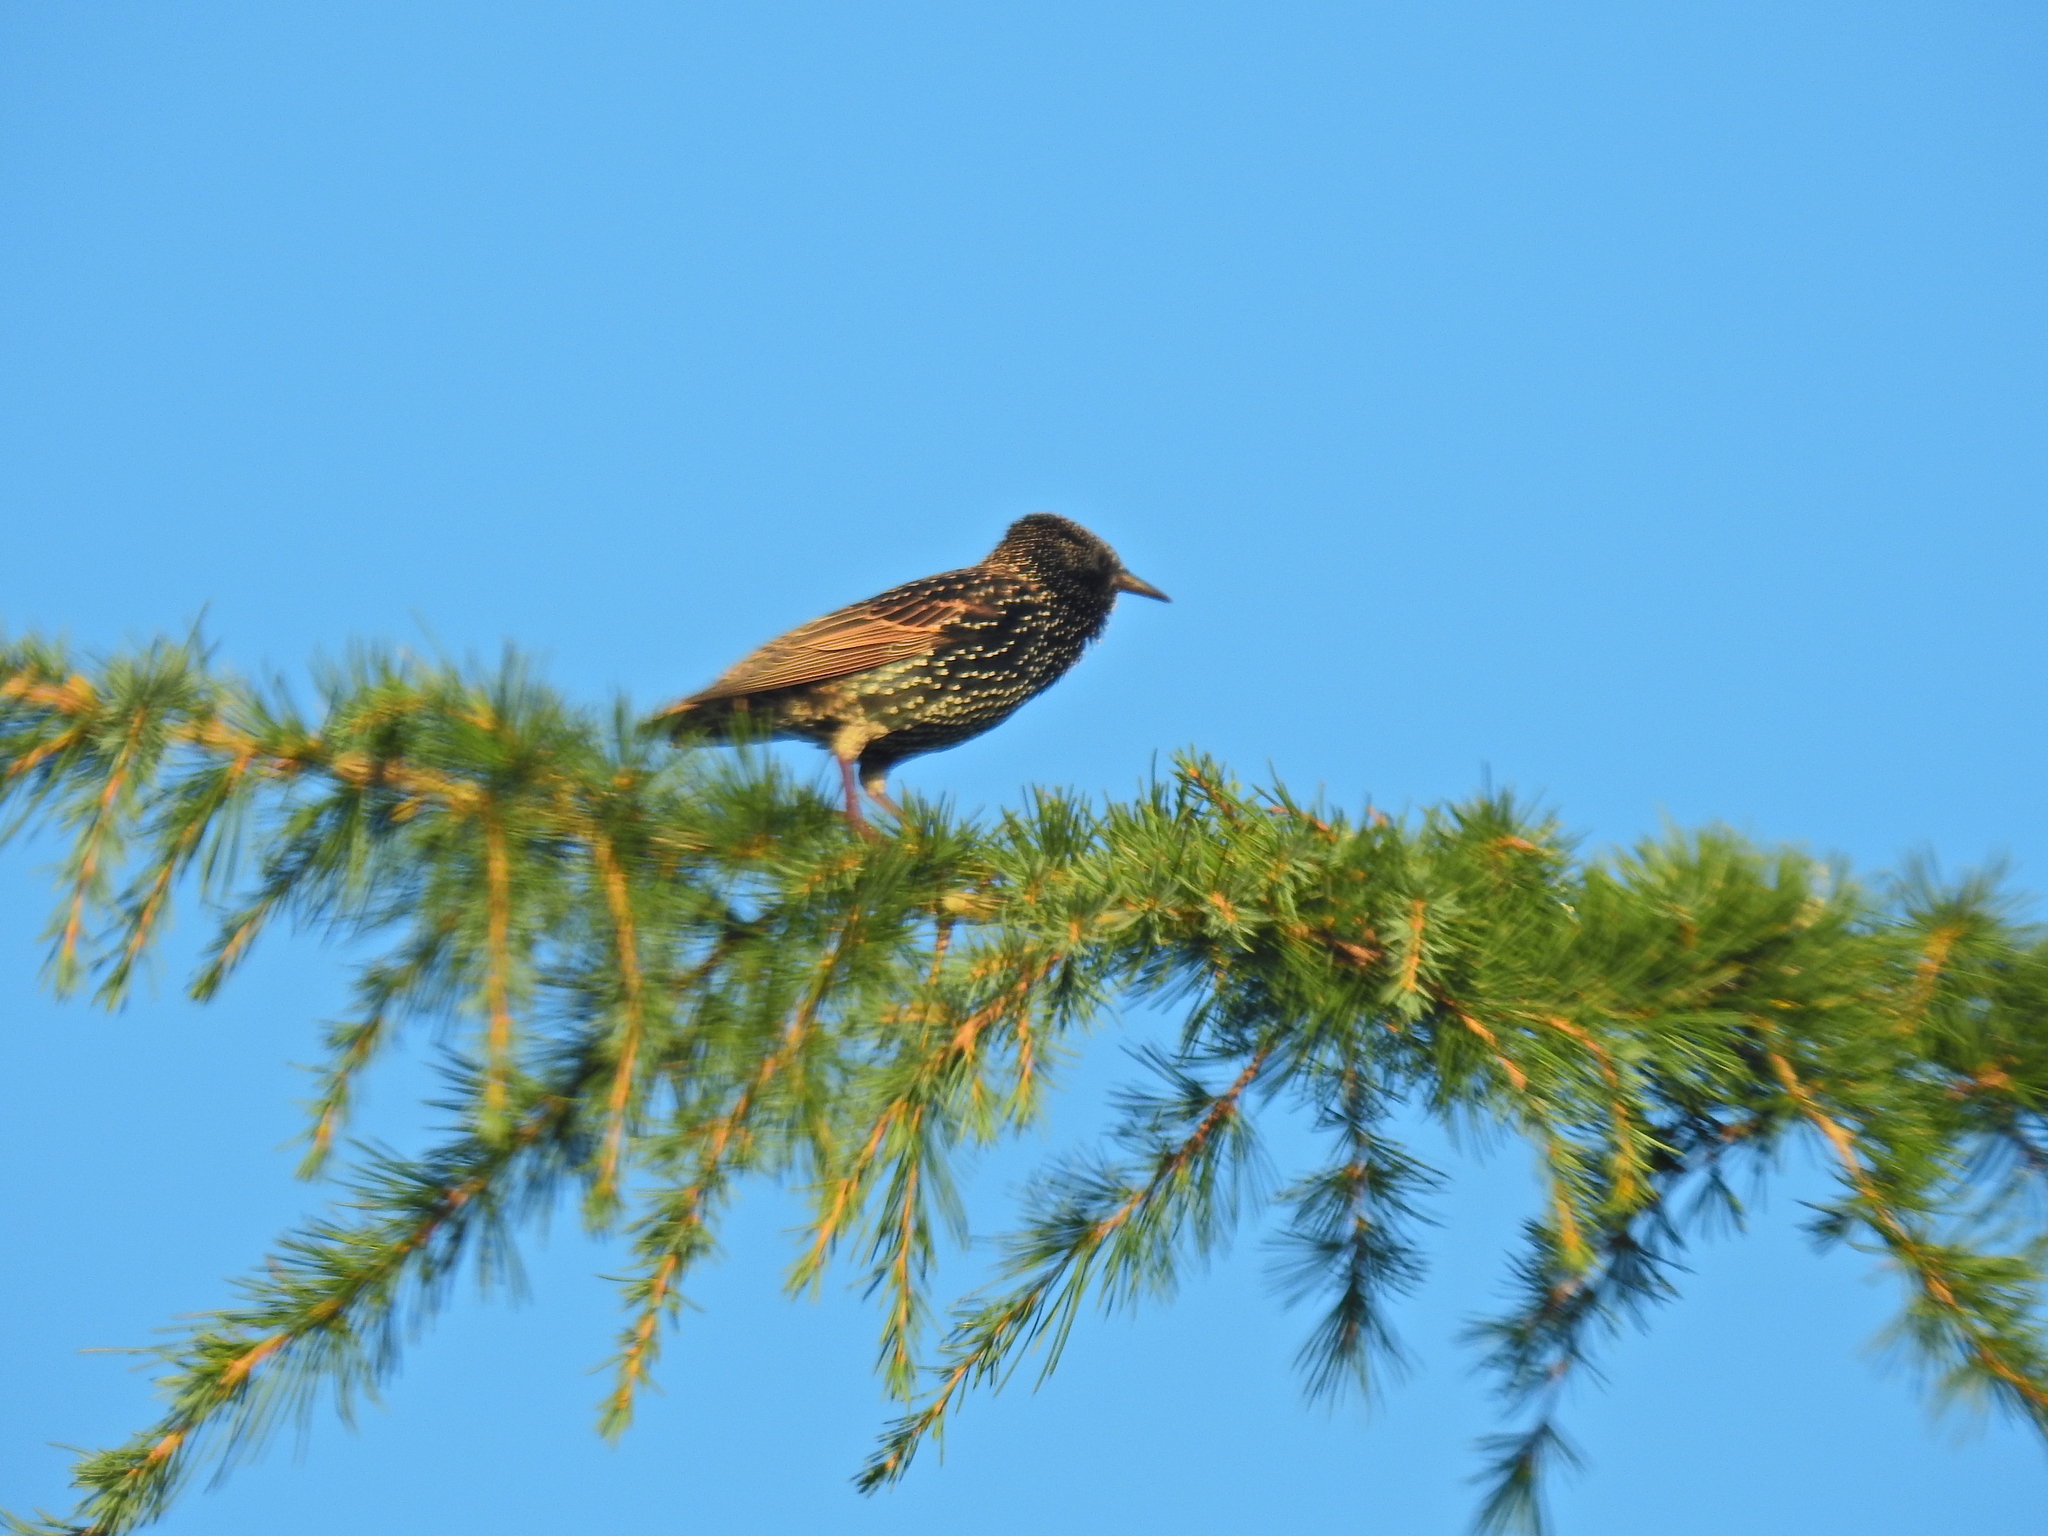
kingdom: Animalia
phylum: Chordata
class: Aves
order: Passeriformes
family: Sturnidae
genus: Sturnus
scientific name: Sturnus vulgaris
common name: Common starling
